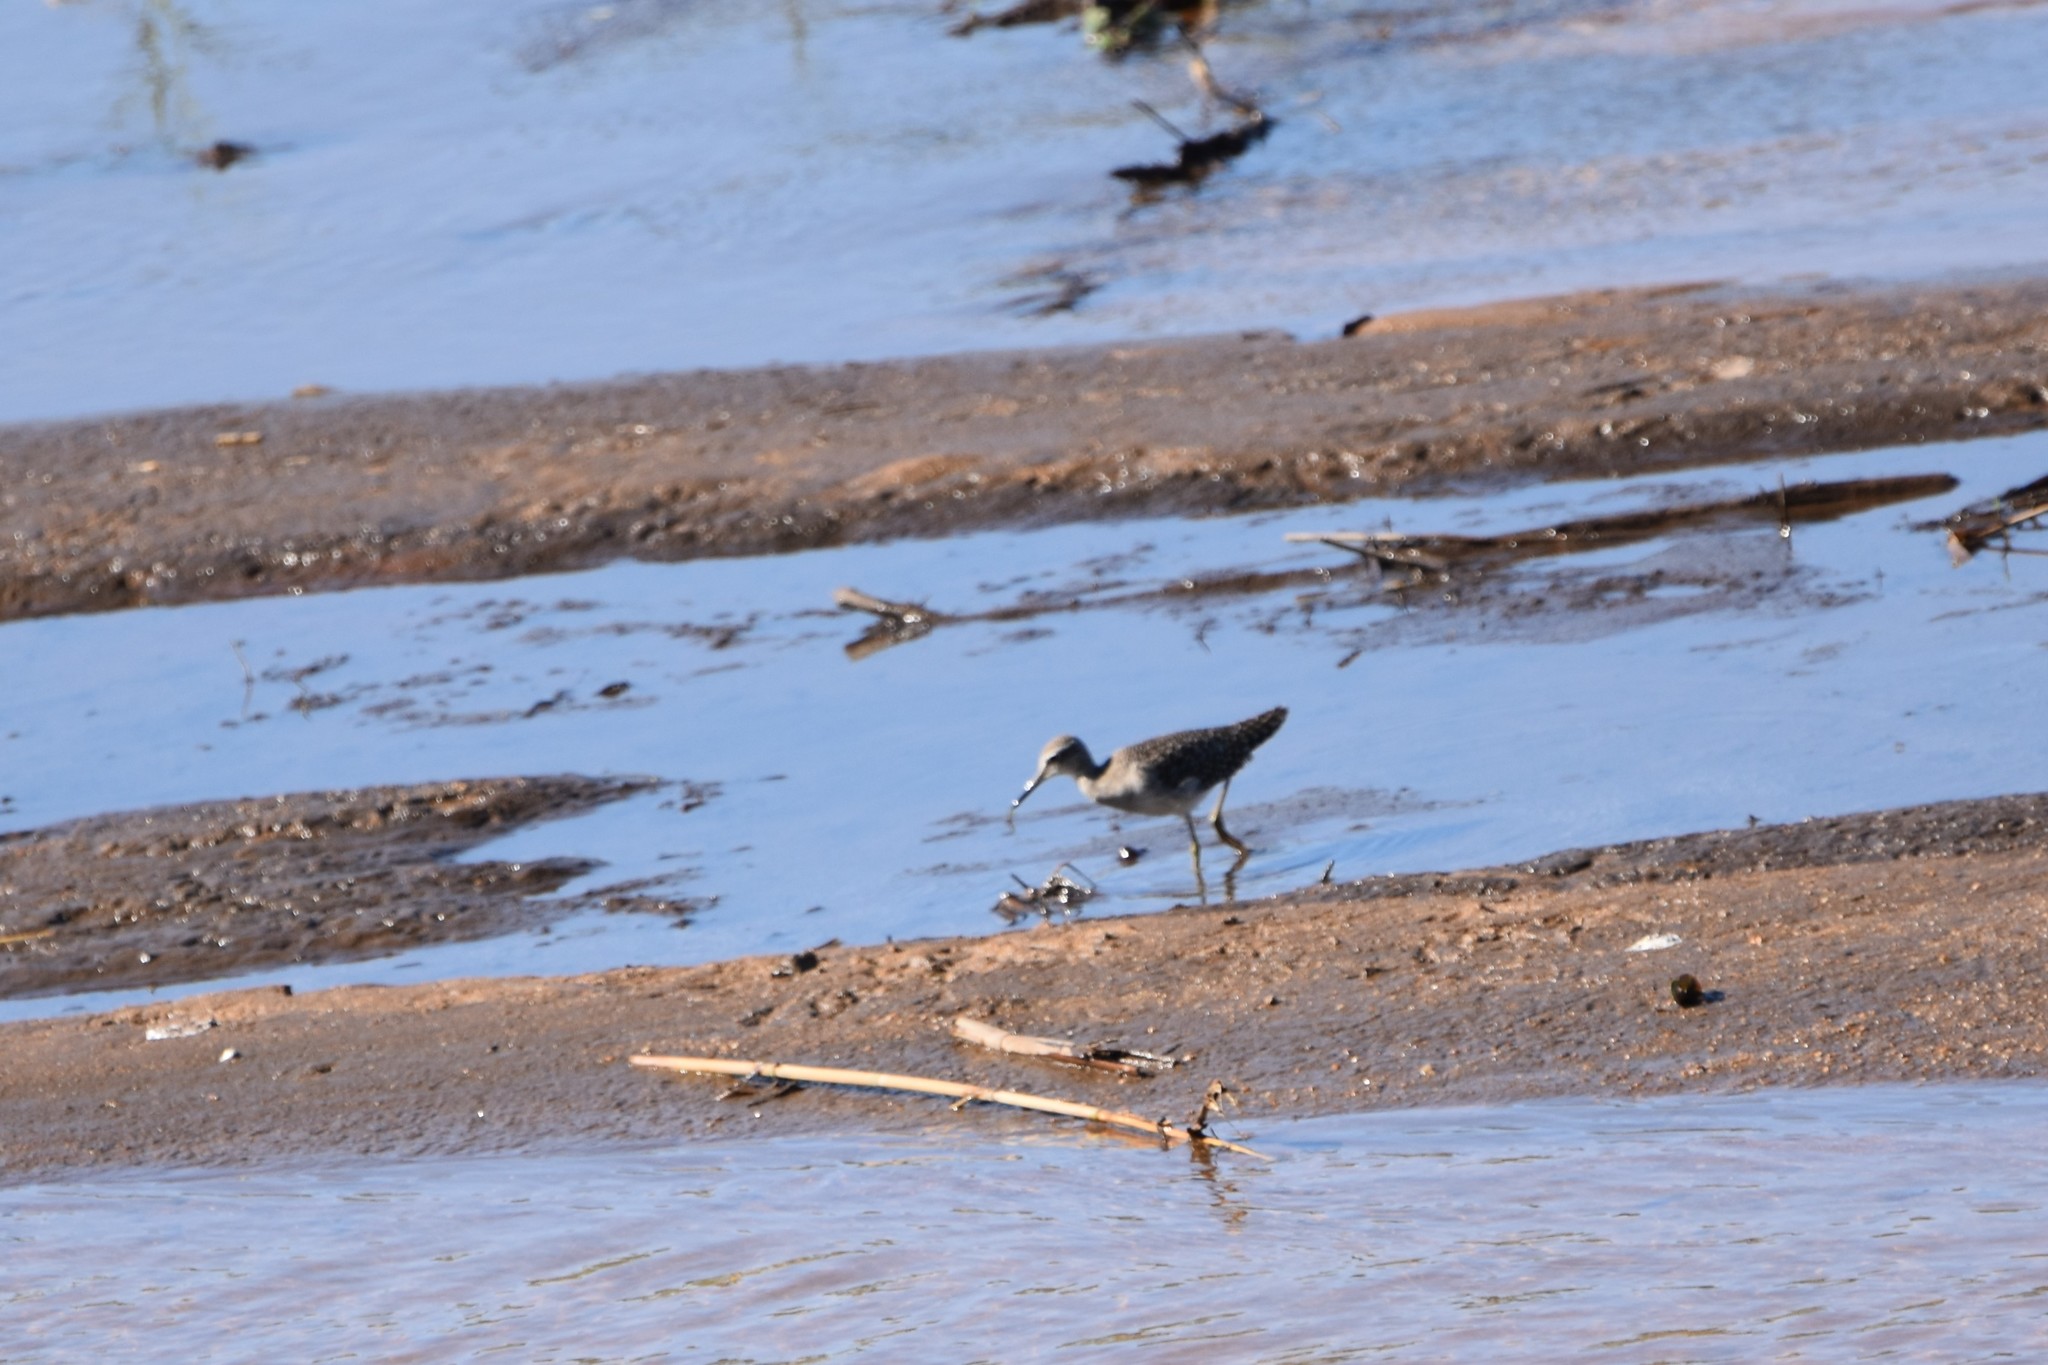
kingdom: Animalia
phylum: Chordata
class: Aves
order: Charadriiformes
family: Scolopacidae
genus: Tringa
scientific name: Tringa glareola
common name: Wood sandpiper
